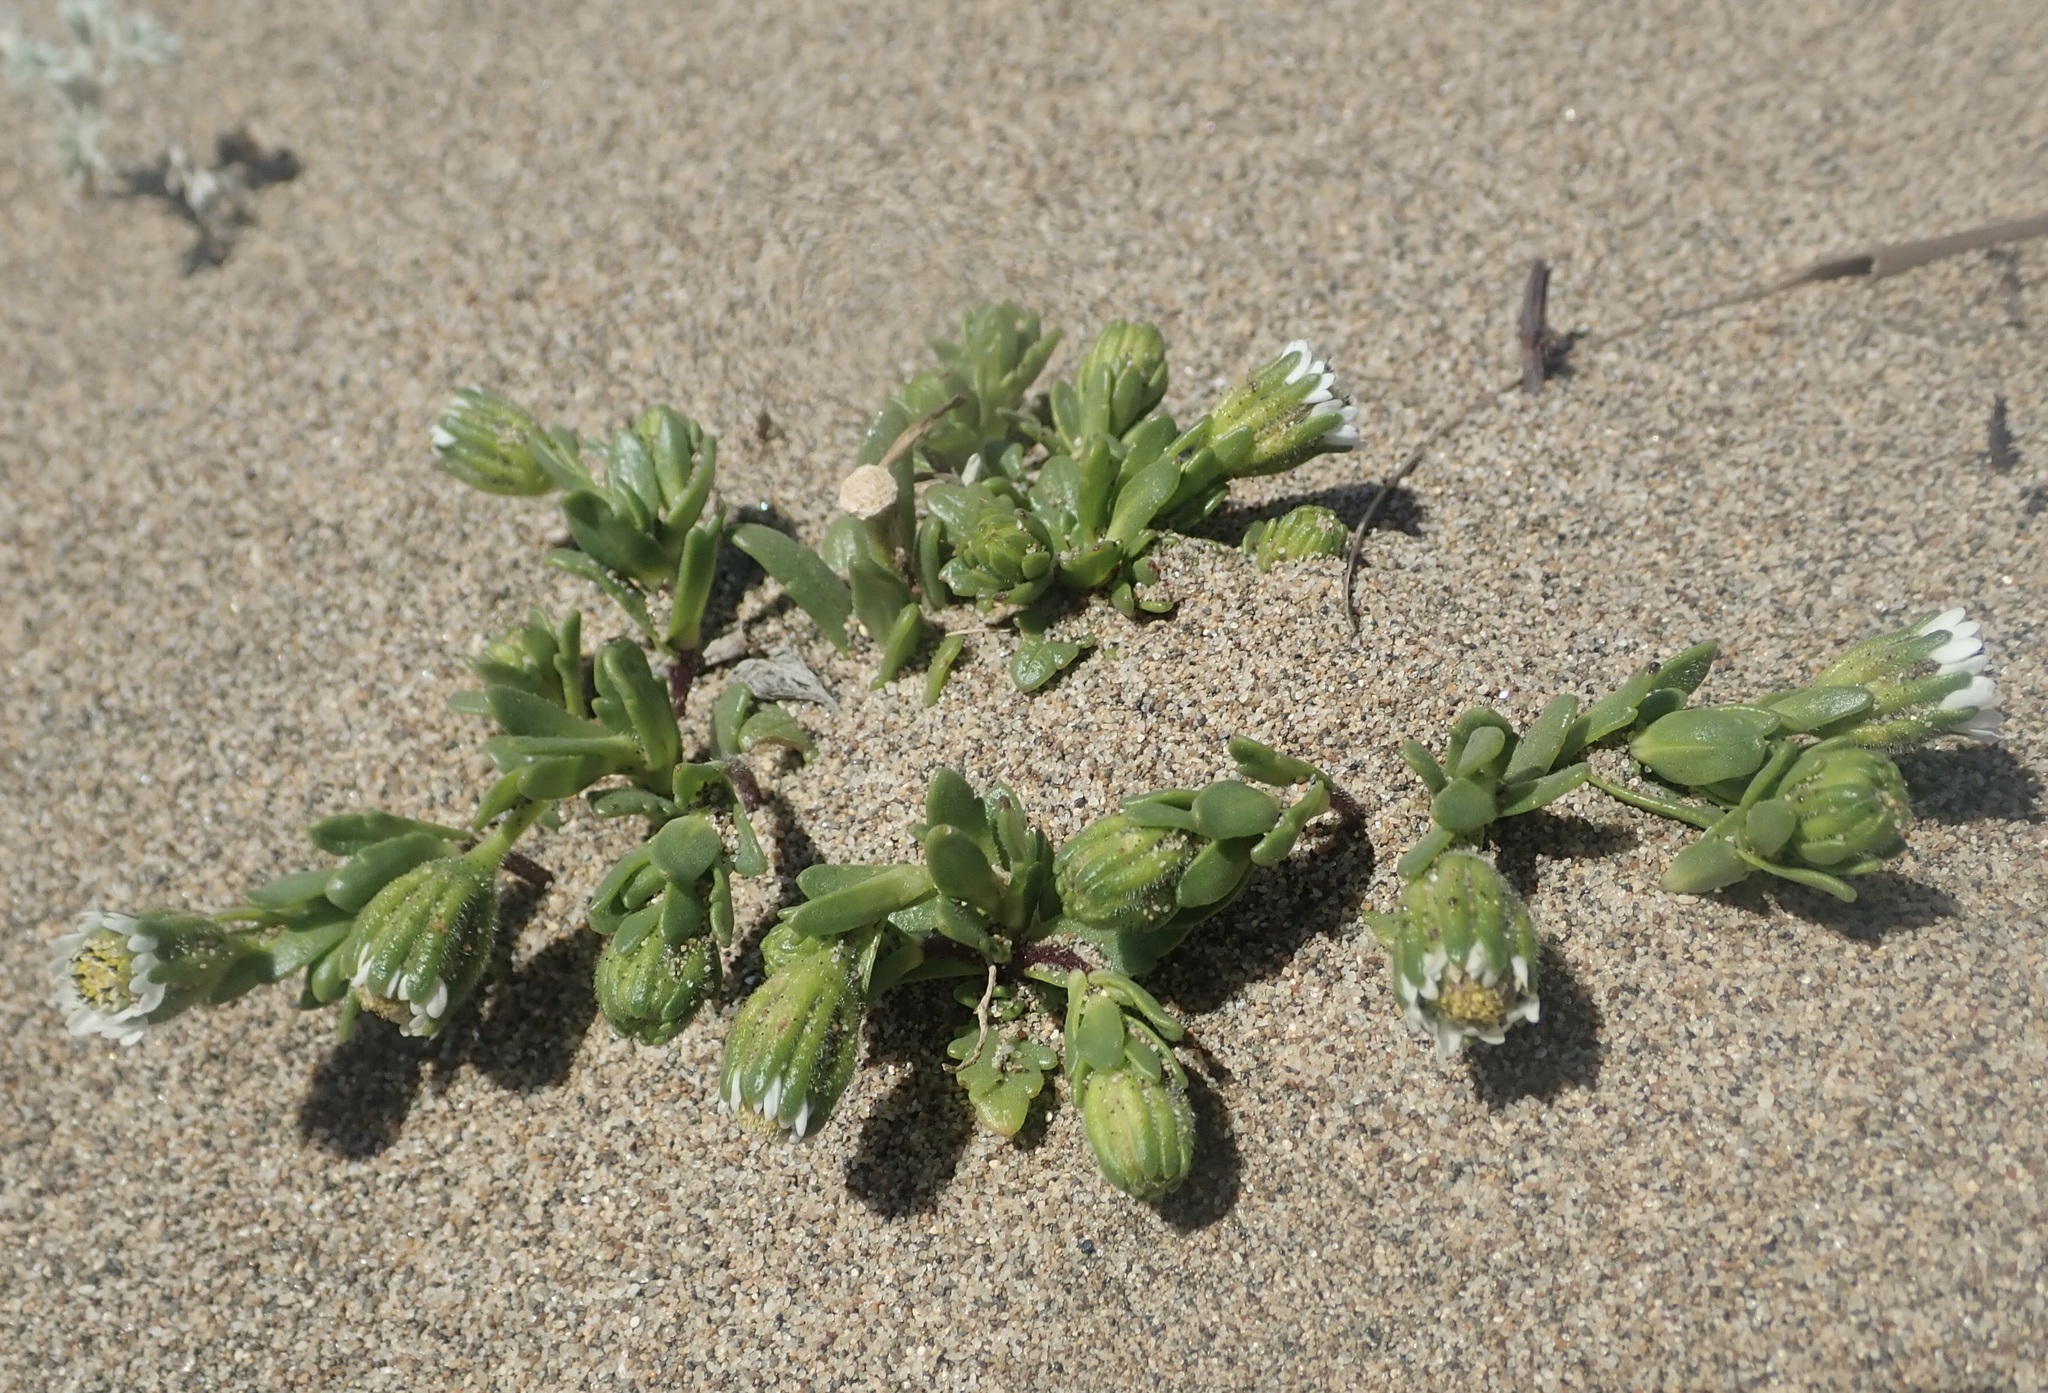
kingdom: Plantae
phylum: Tracheophyta
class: Magnoliopsida
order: Asterales
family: Asteraceae
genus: Layia
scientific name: Layia carnosa
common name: Beach layia
